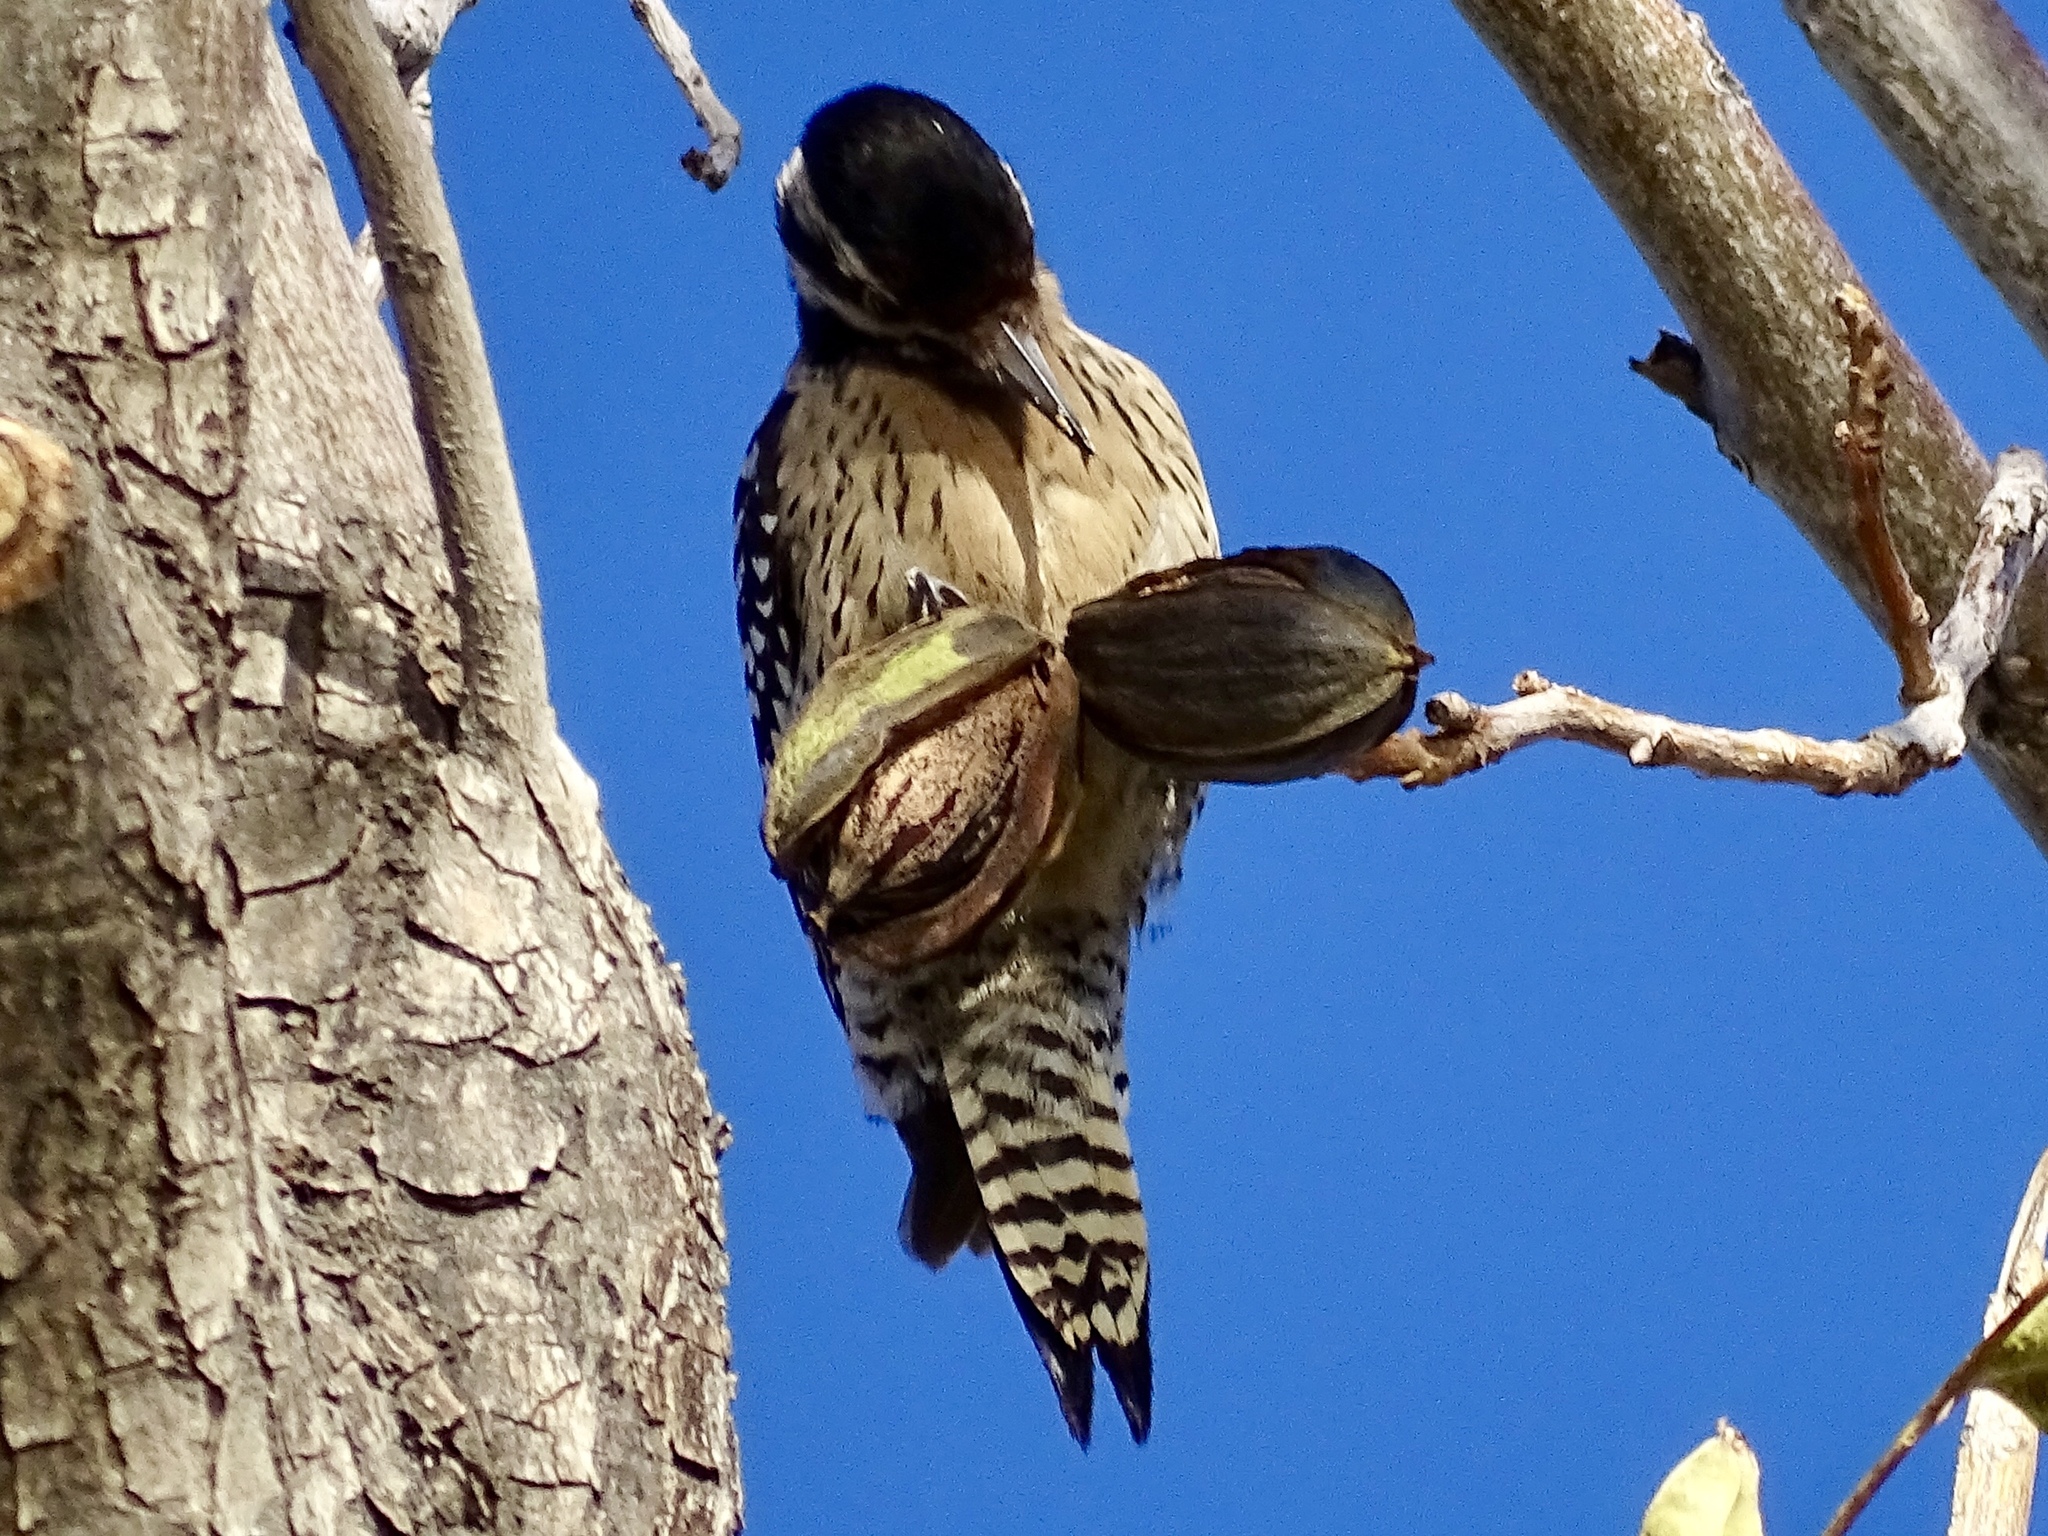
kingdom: Animalia
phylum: Chordata
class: Aves
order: Piciformes
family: Picidae
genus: Dryobates
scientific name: Dryobates scalaris
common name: Ladder-backed woodpecker
